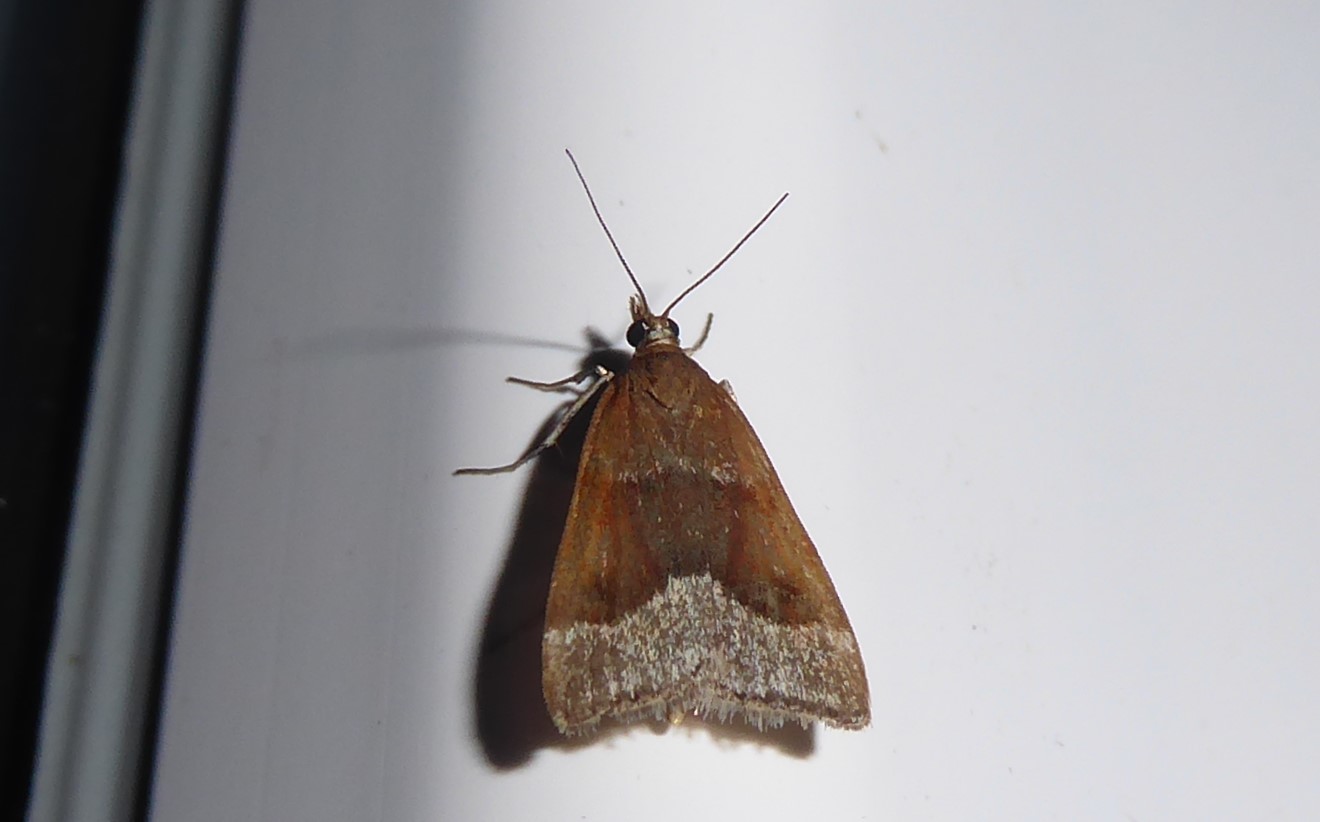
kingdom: Animalia
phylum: Arthropoda
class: Insecta
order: Lepidoptera
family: Crambidae
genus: Eudonia
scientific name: Eudonia feredayi
